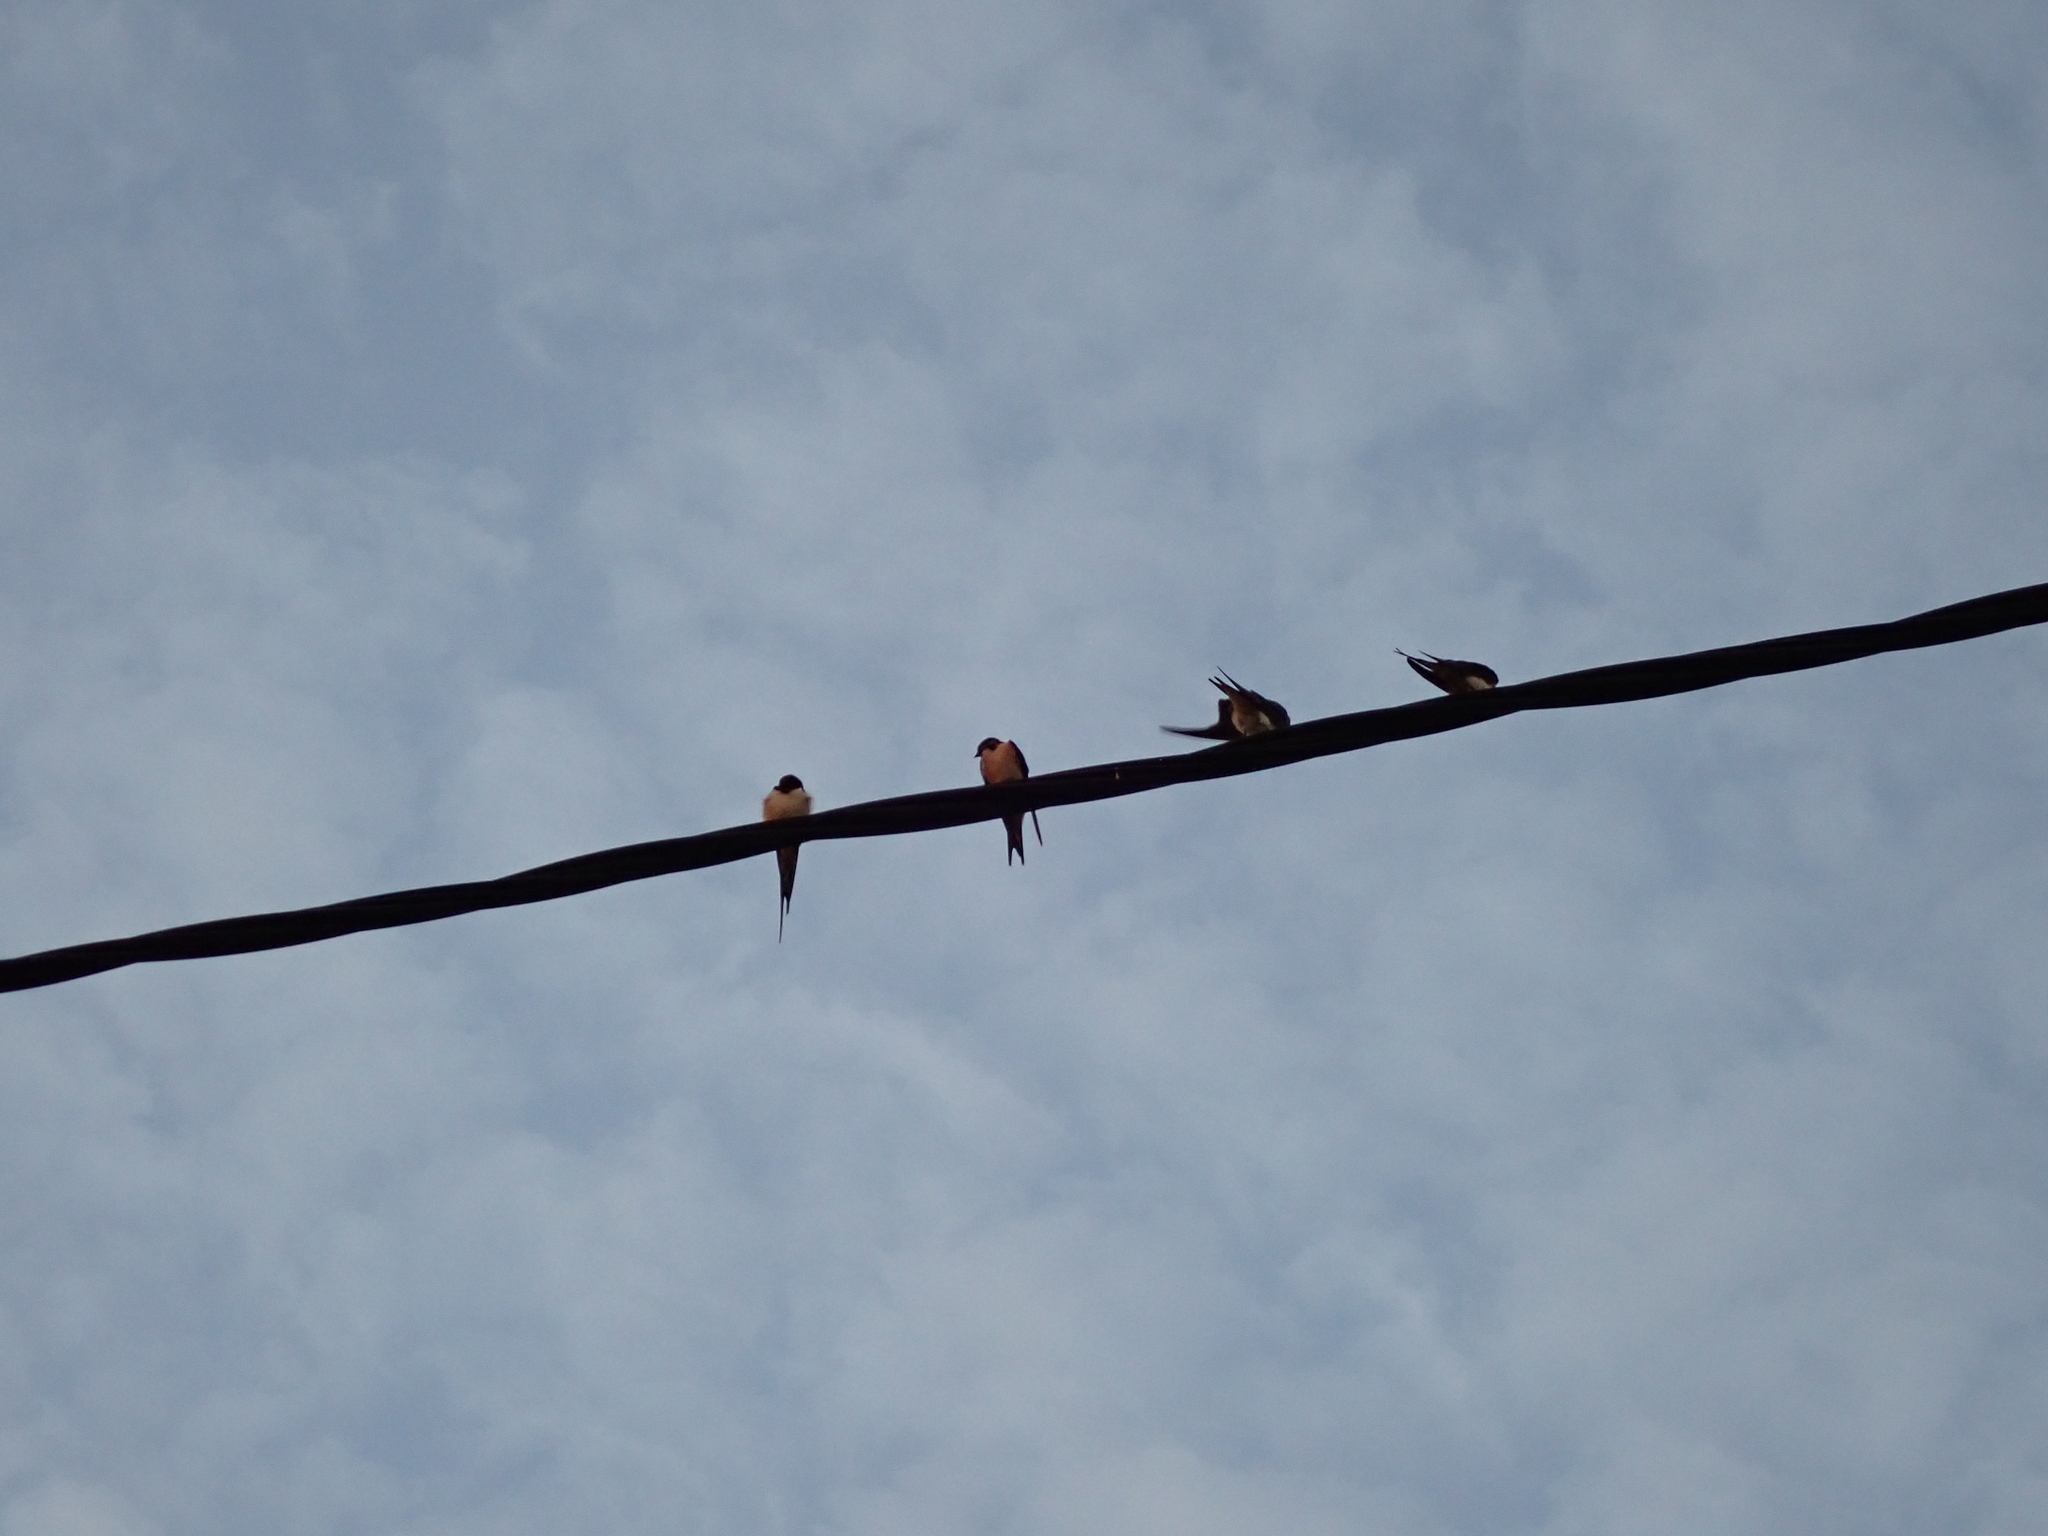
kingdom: Animalia
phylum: Chordata
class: Aves
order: Passeriformes
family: Hirundinidae
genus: Hirundo
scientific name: Hirundo rustica
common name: Barn swallow
